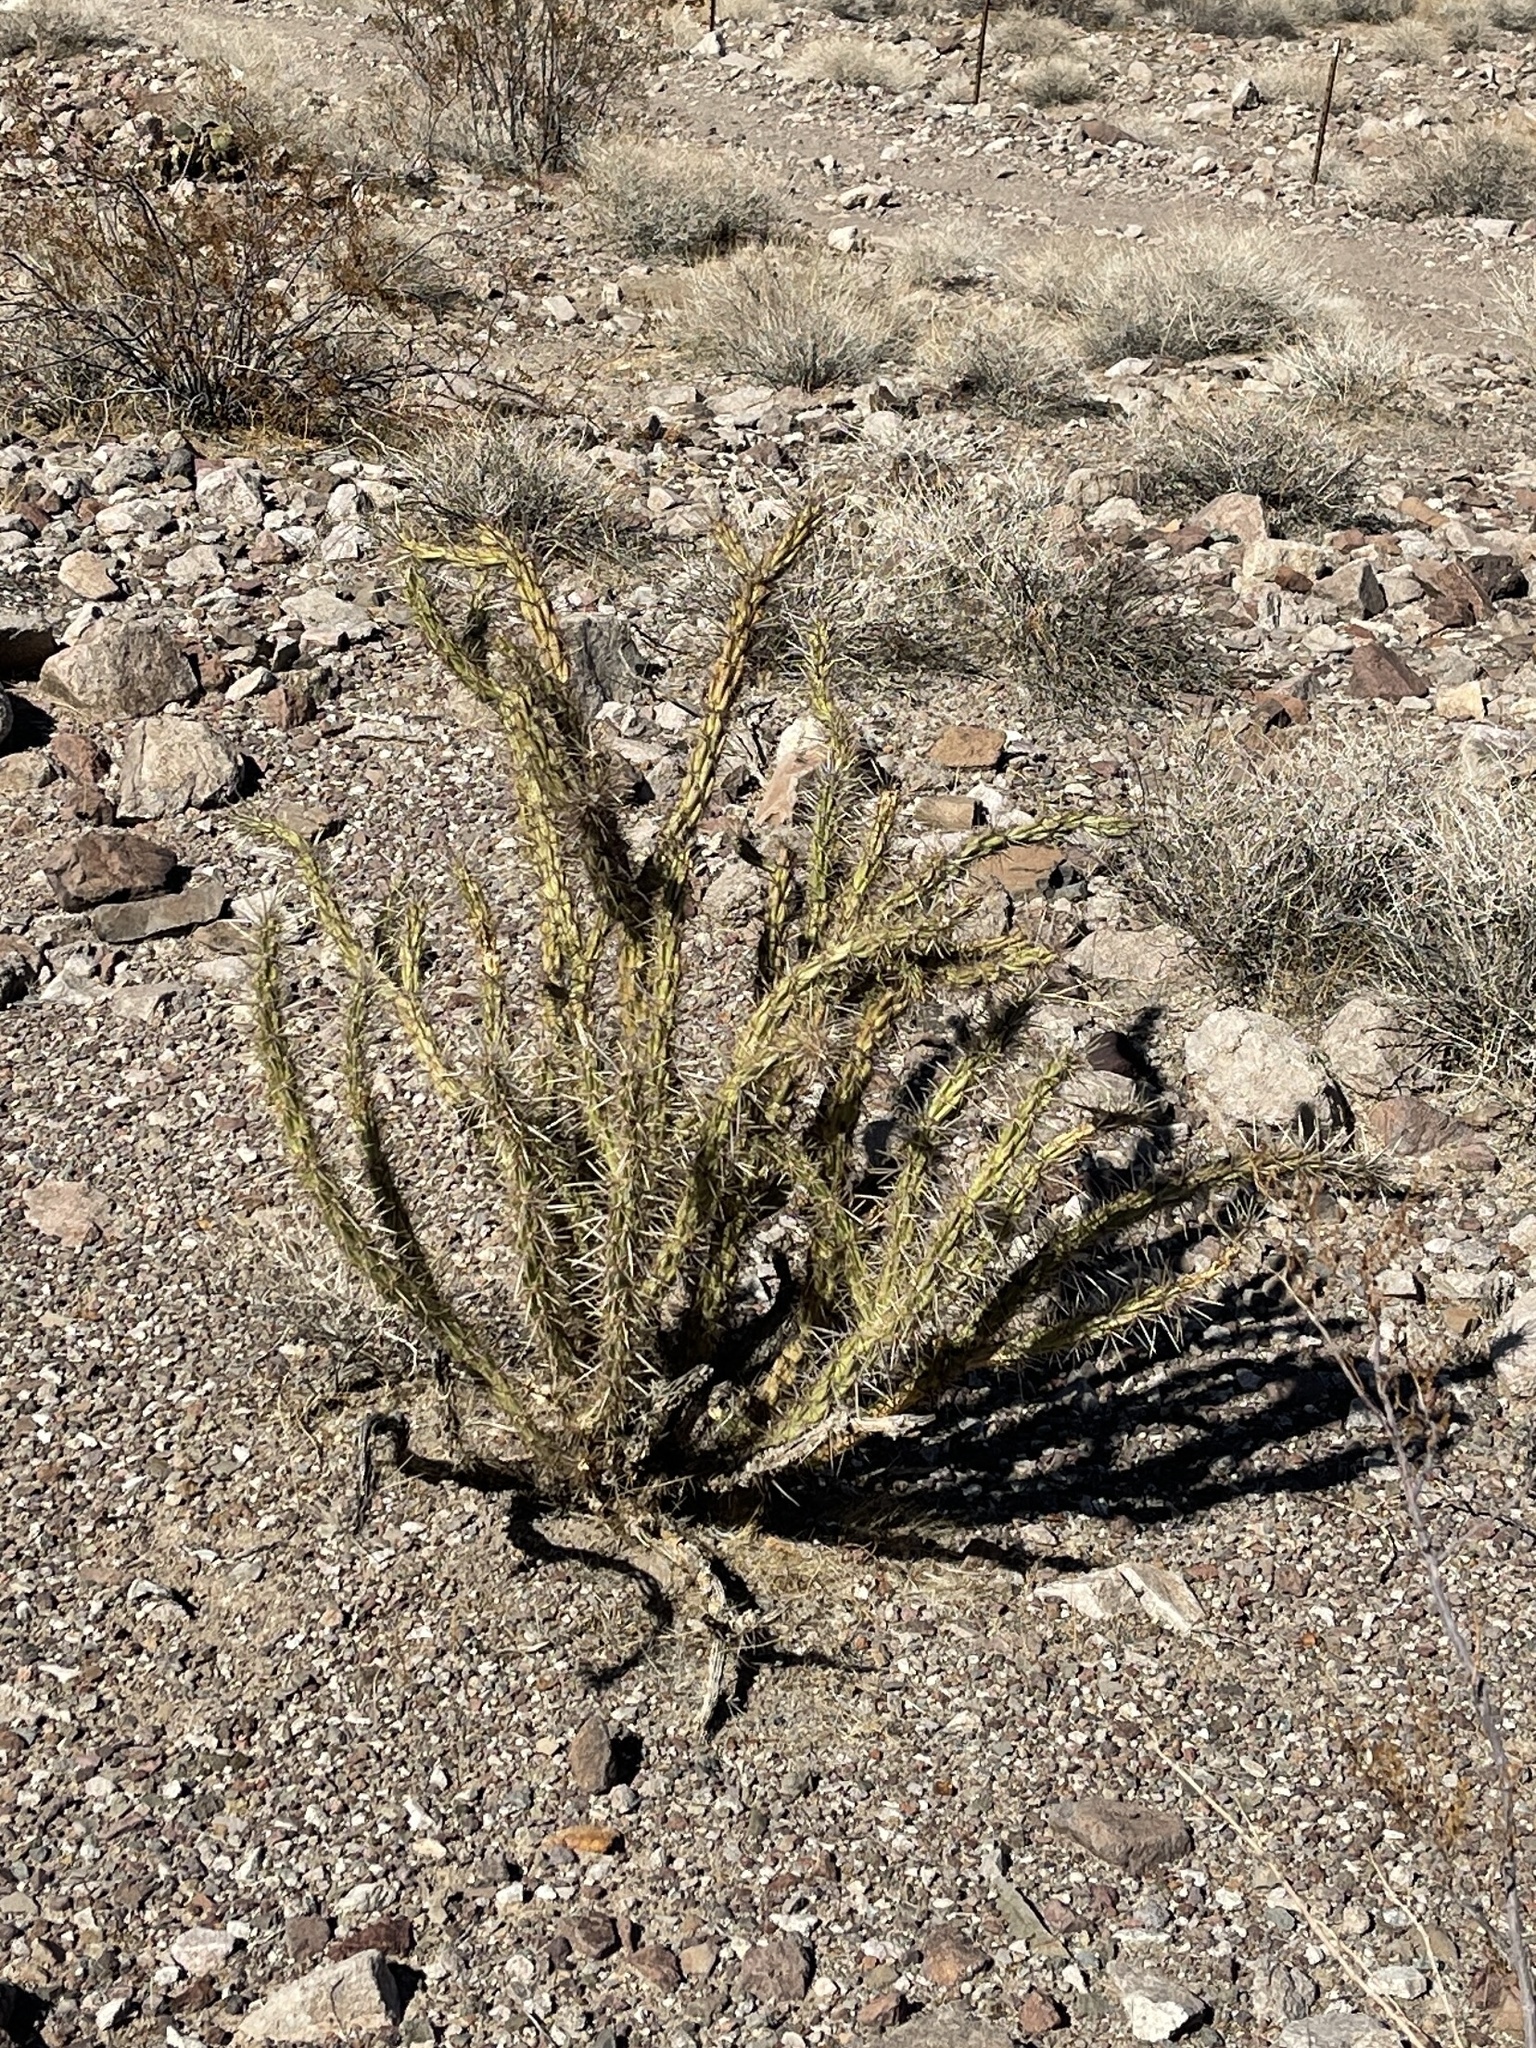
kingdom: Plantae
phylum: Tracheophyta
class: Magnoliopsida
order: Caryophyllales
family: Cactaceae
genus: Cylindropuntia
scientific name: Cylindropuntia acanthocarpa
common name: Buckhorn cholla
